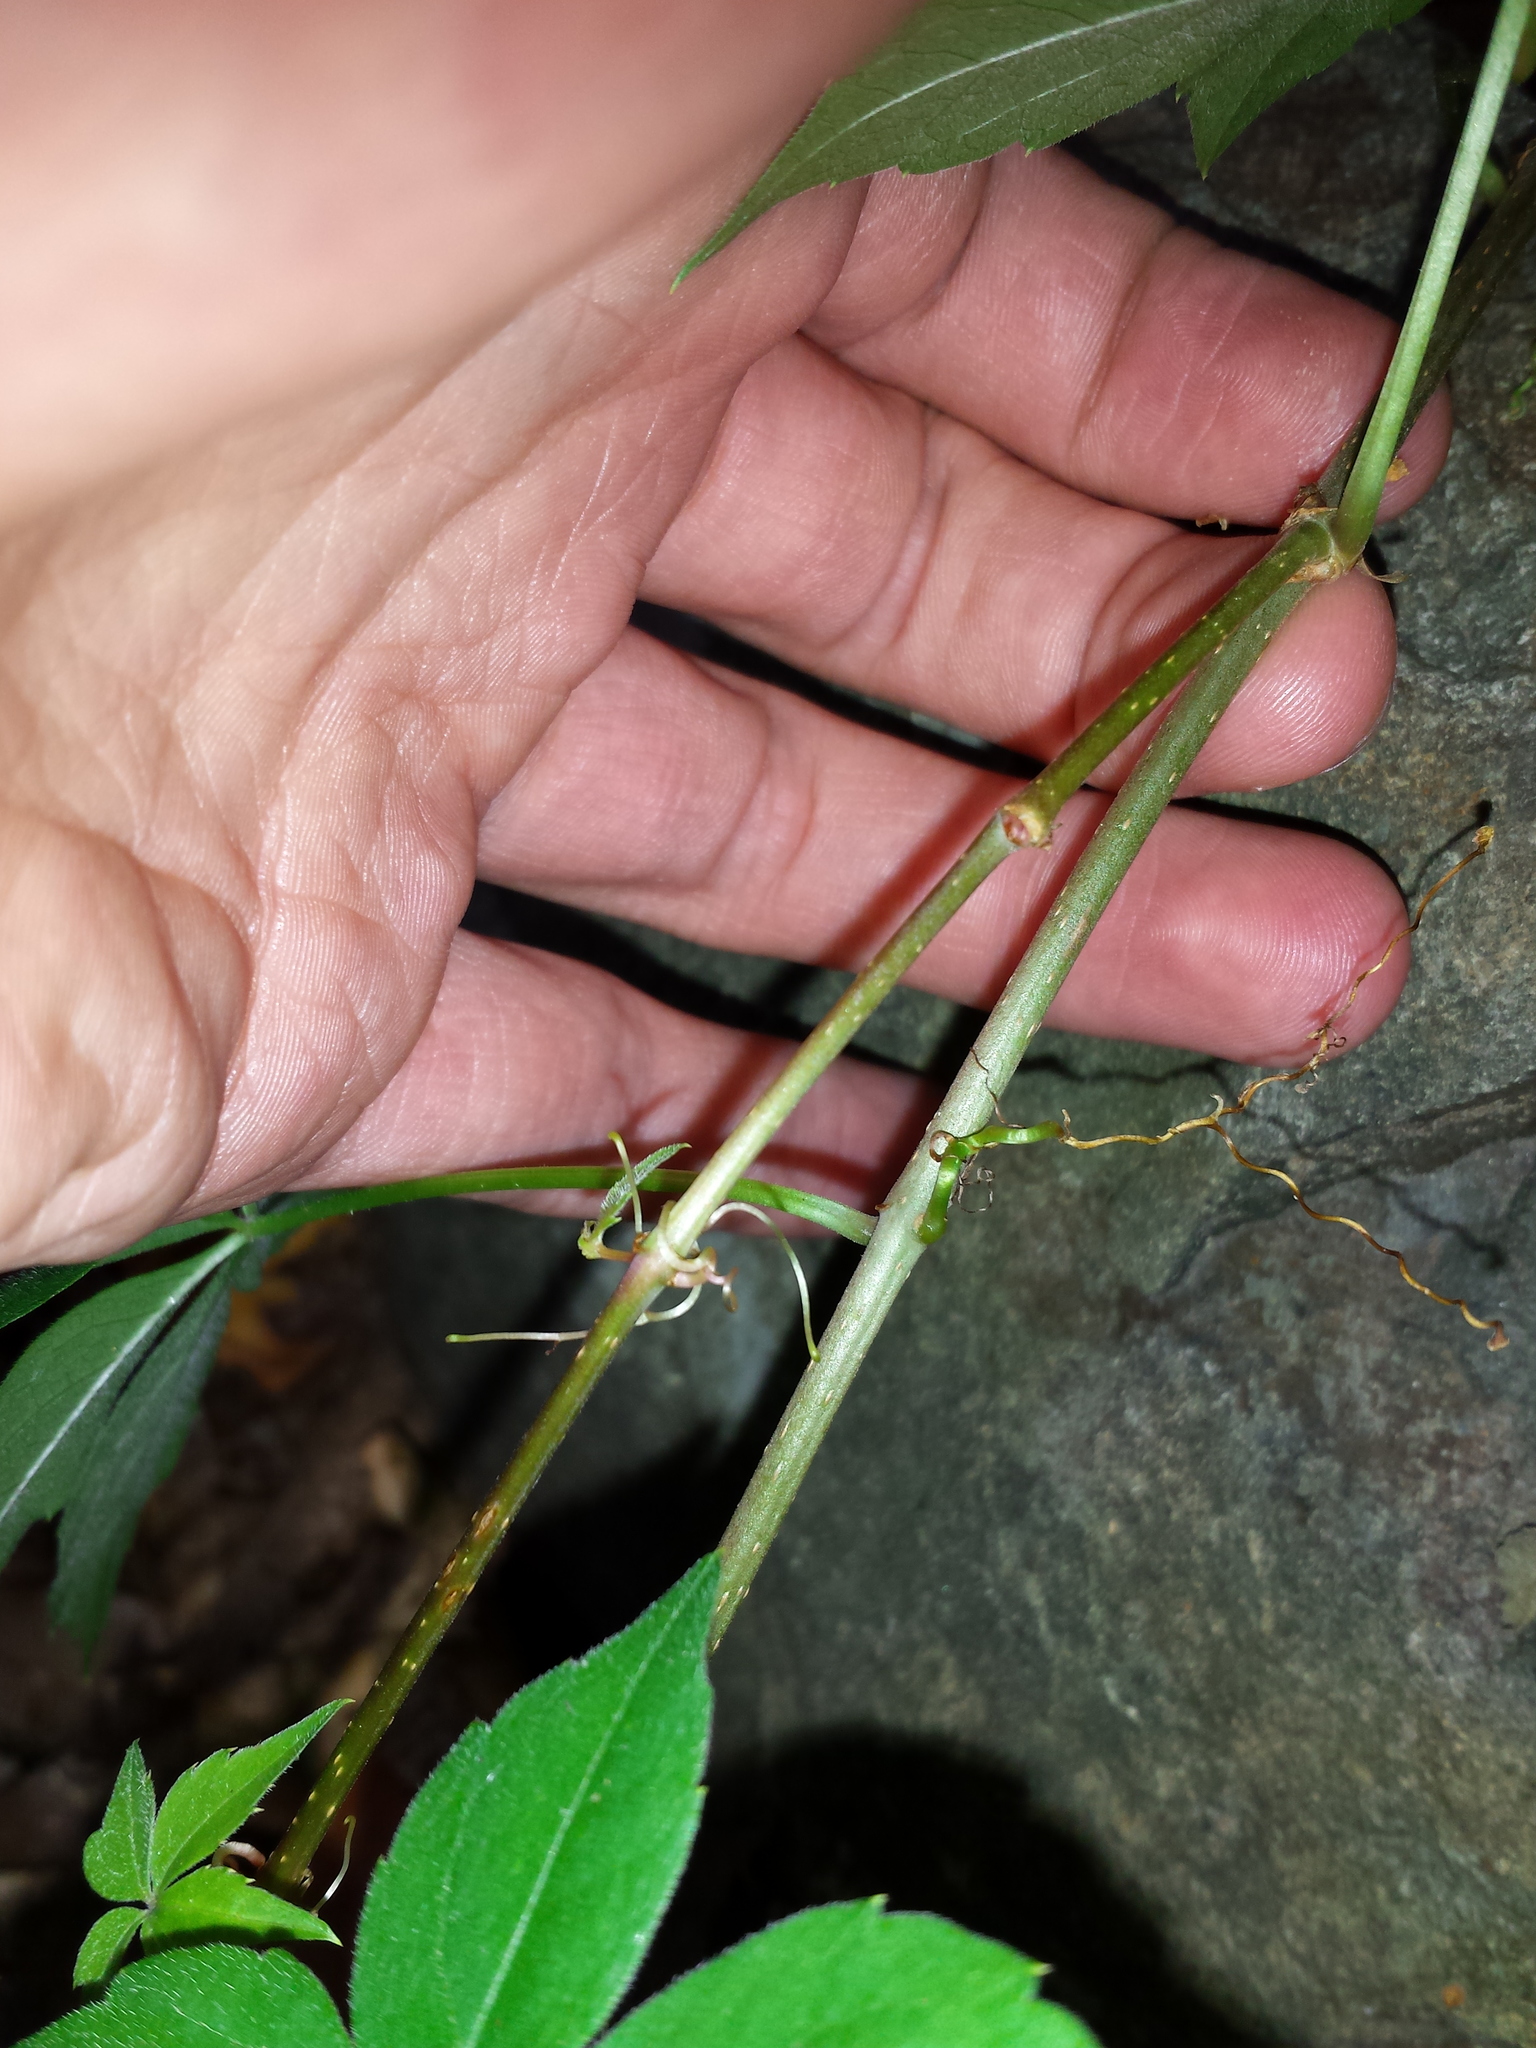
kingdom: Plantae
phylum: Tracheophyta
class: Magnoliopsida
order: Vitales
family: Vitaceae
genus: Parthenocissus
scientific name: Parthenocissus quinquefolia
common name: Virginia-creeper
